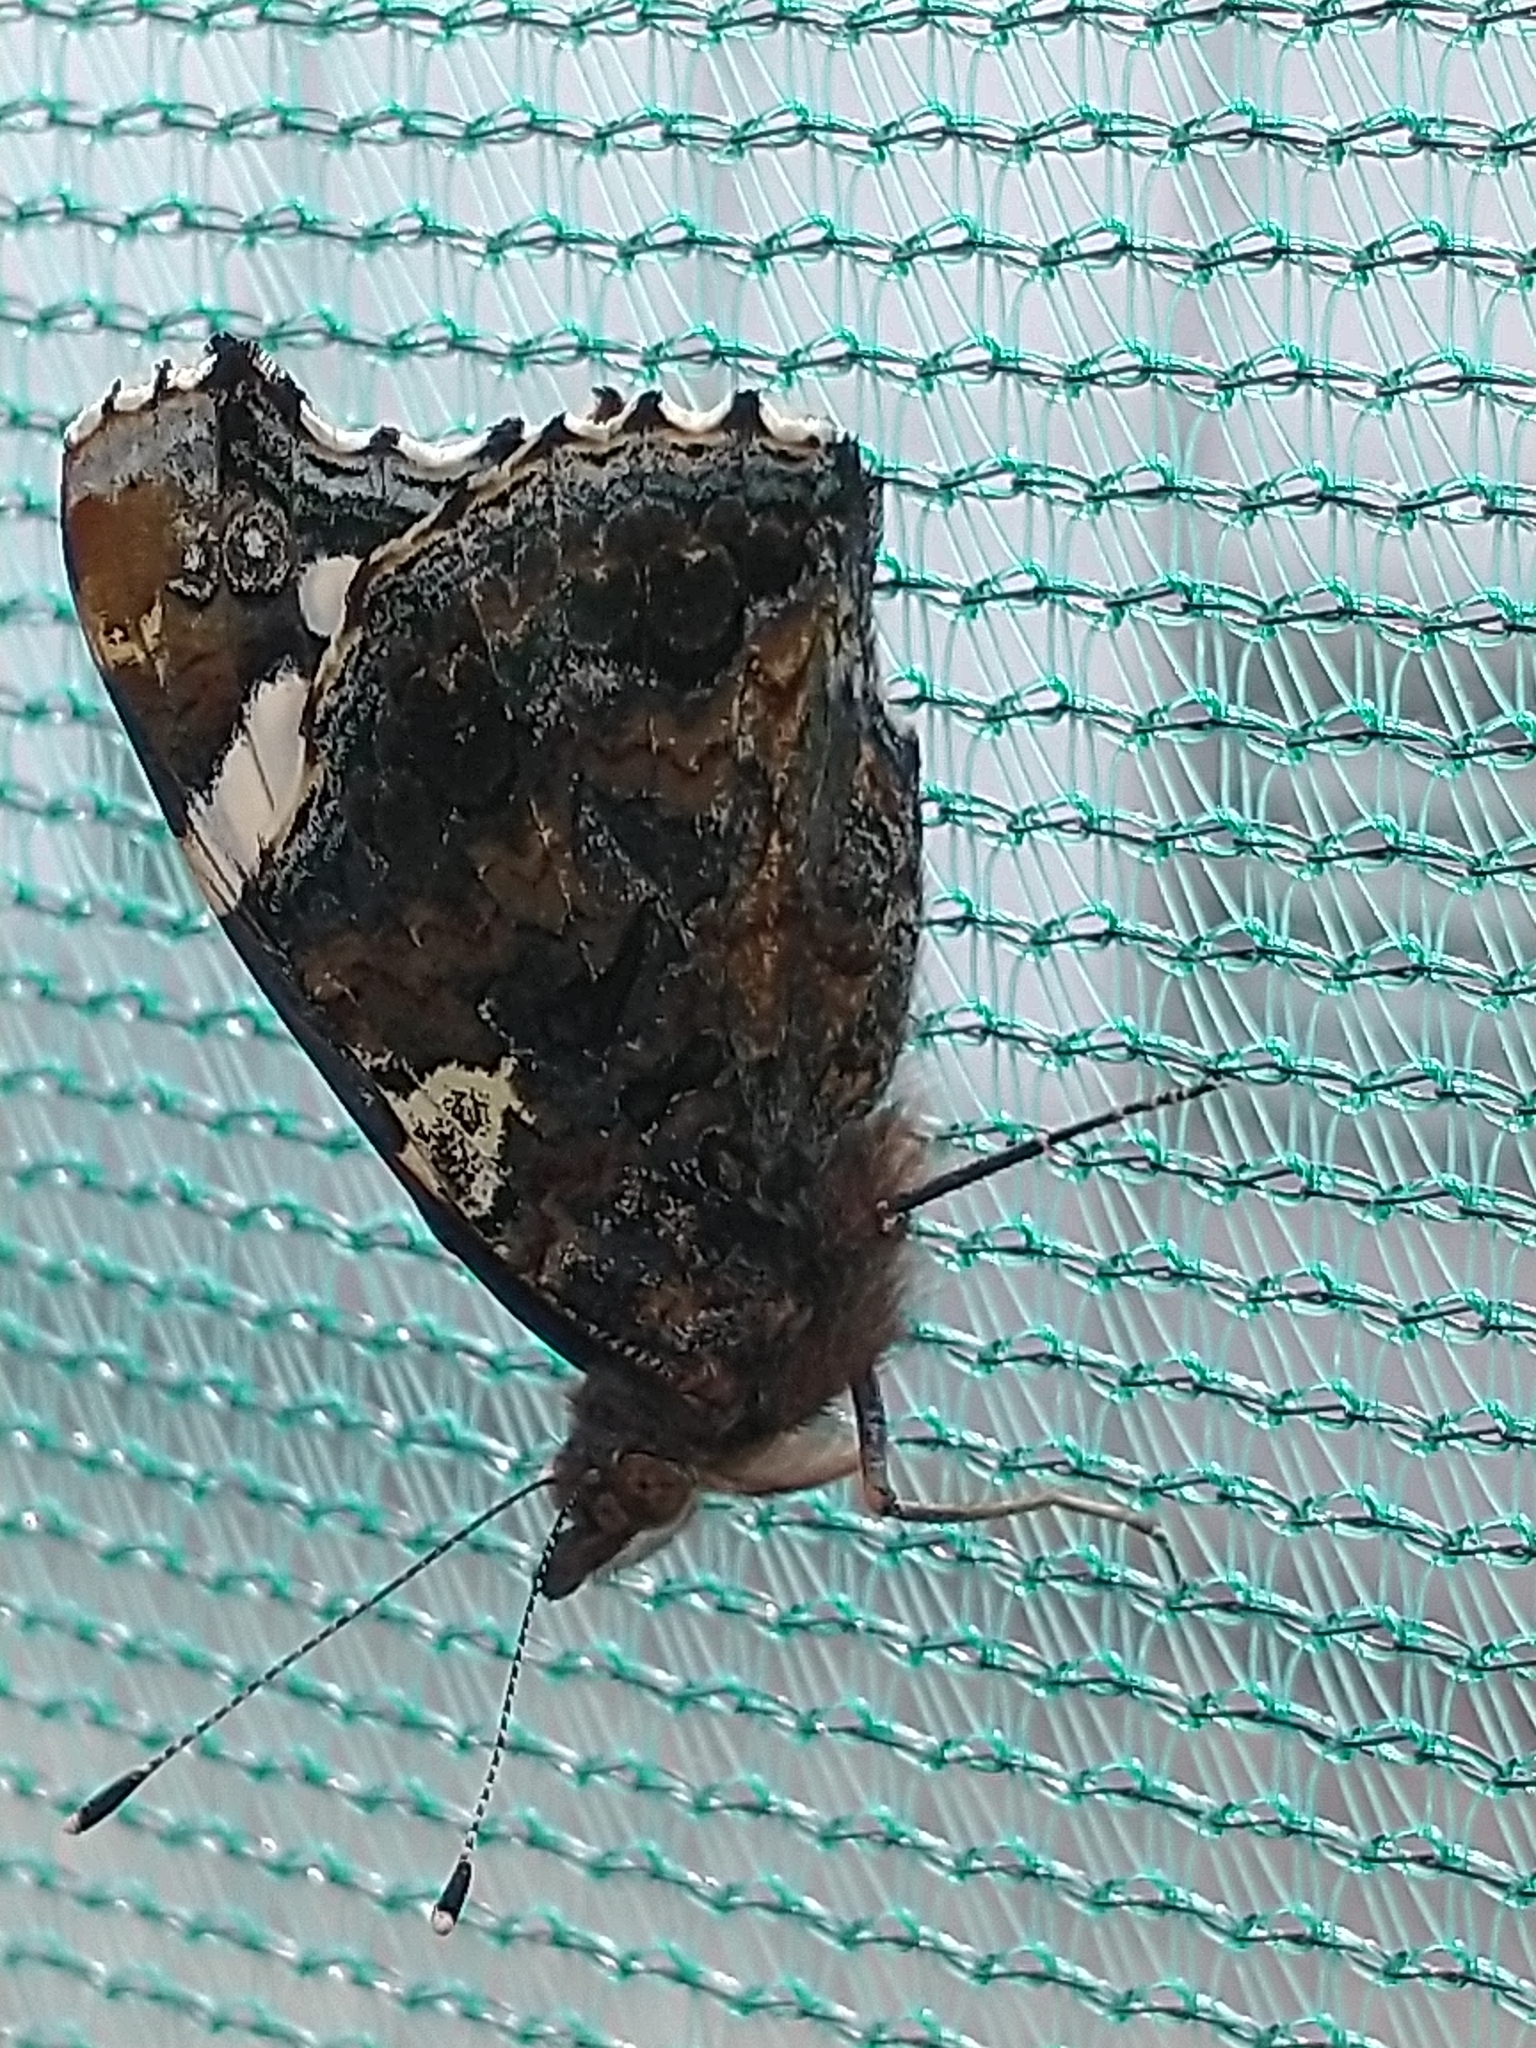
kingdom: Animalia
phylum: Arthropoda
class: Insecta
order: Lepidoptera
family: Nymphalidae
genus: Vanessa
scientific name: Vanessa atalanta
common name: Red admiral
